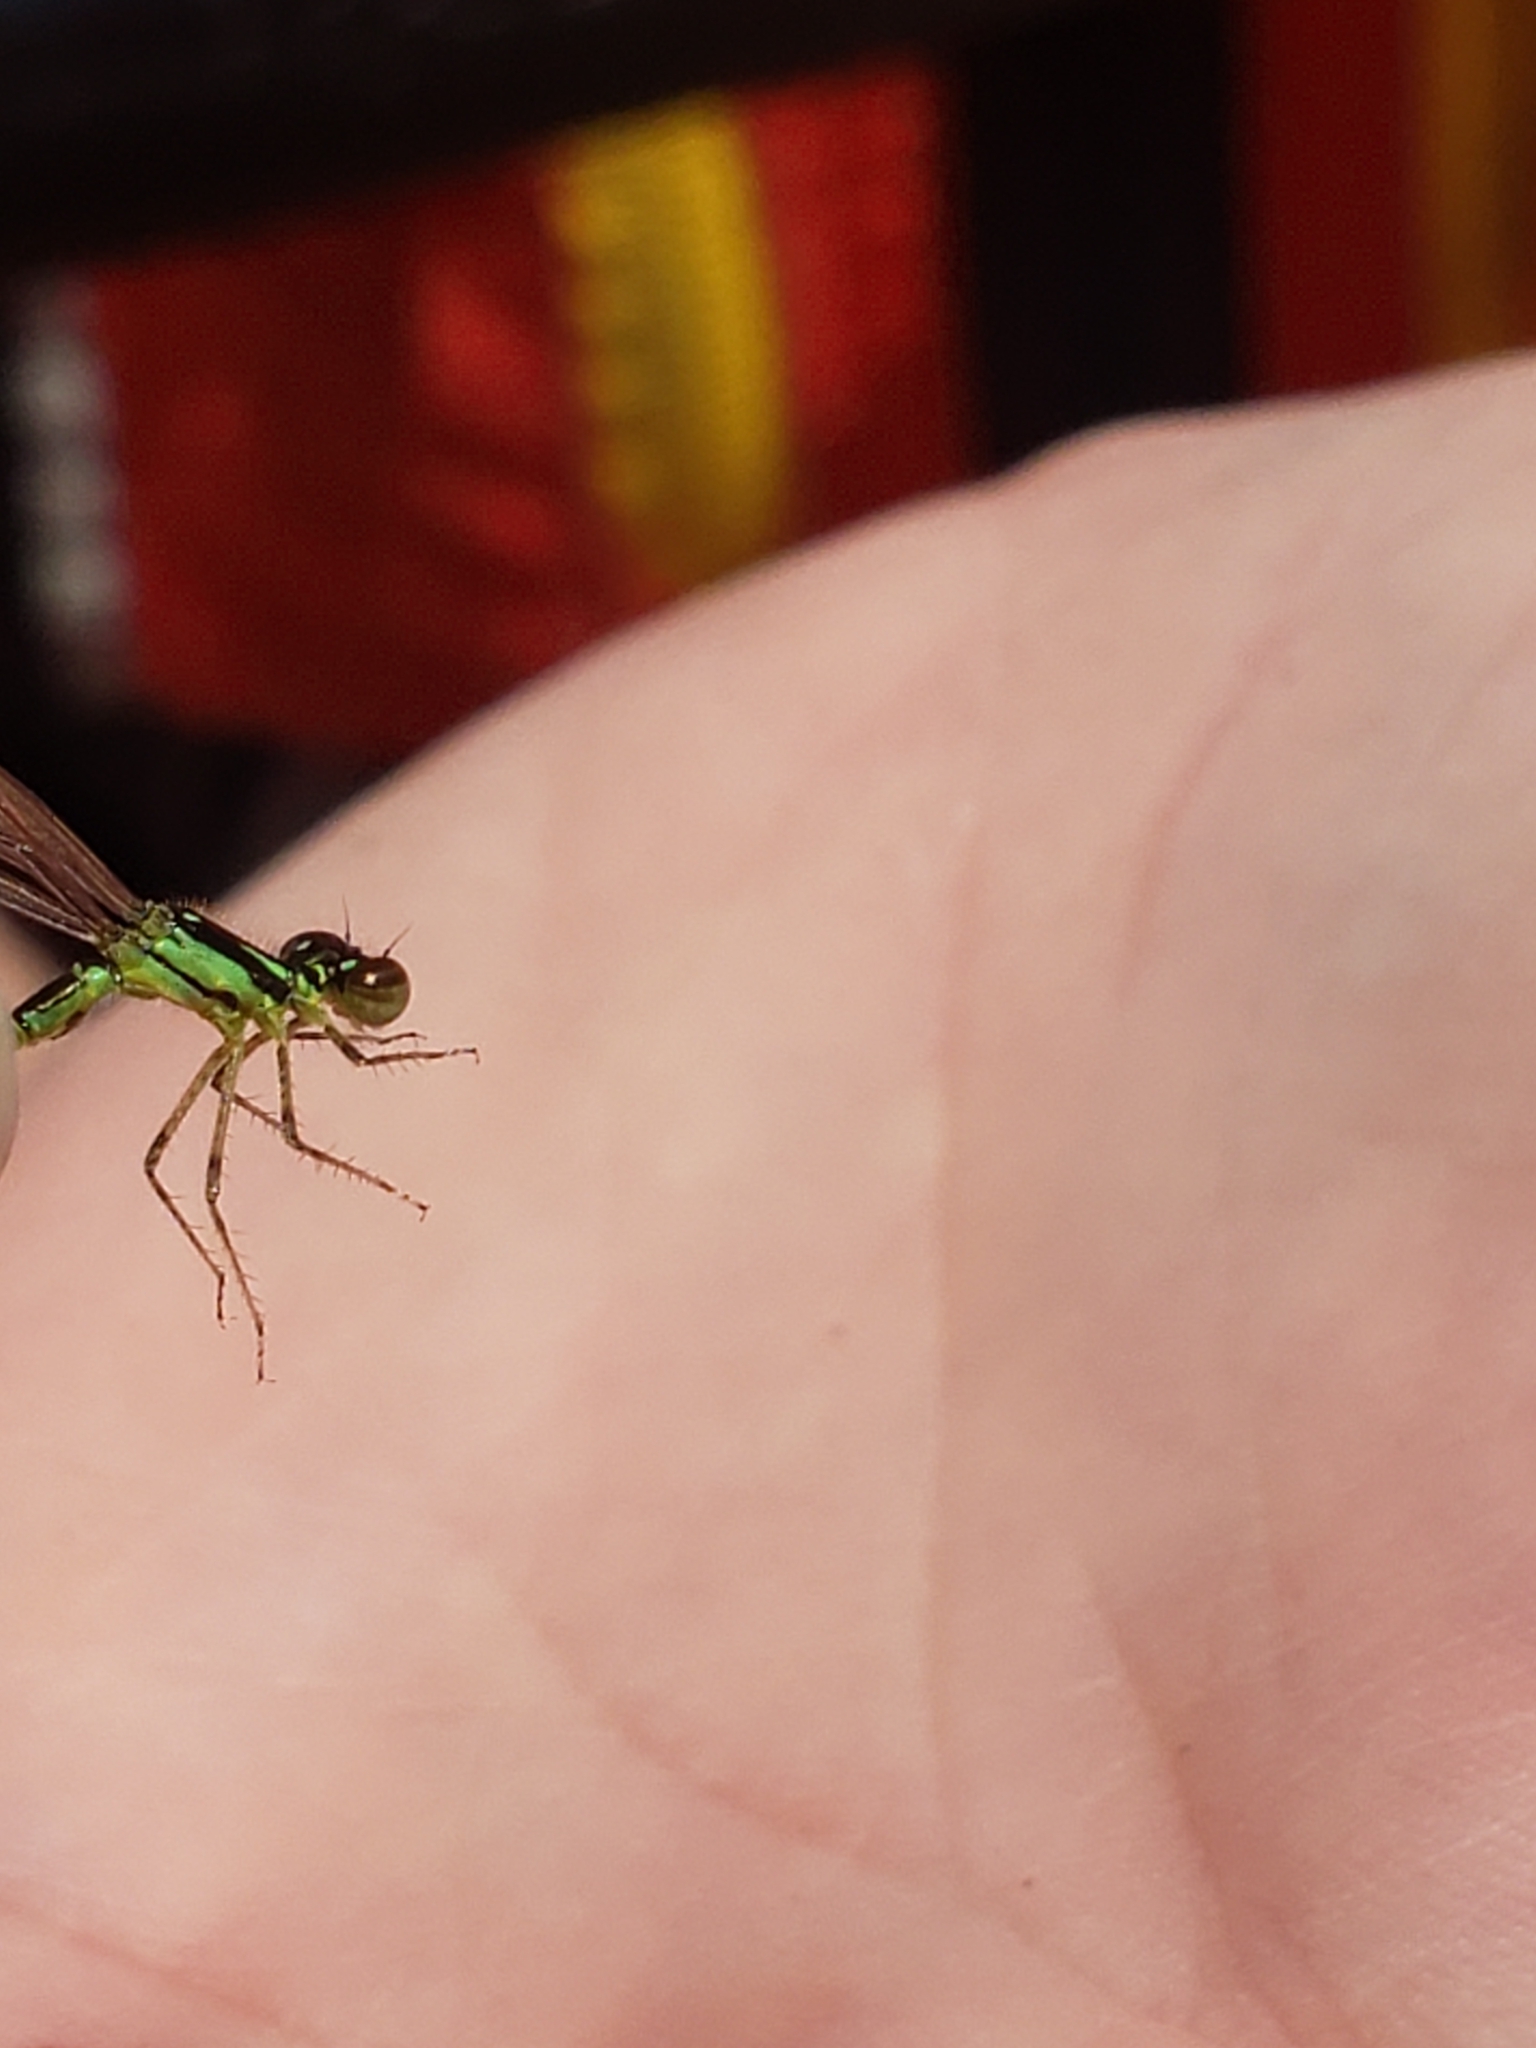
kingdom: Animalia
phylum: Arthropoda
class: Insecta
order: Odonata
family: Coenagrionidae
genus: Ischnura
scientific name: Ischnura posita
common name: Fragile forktail
